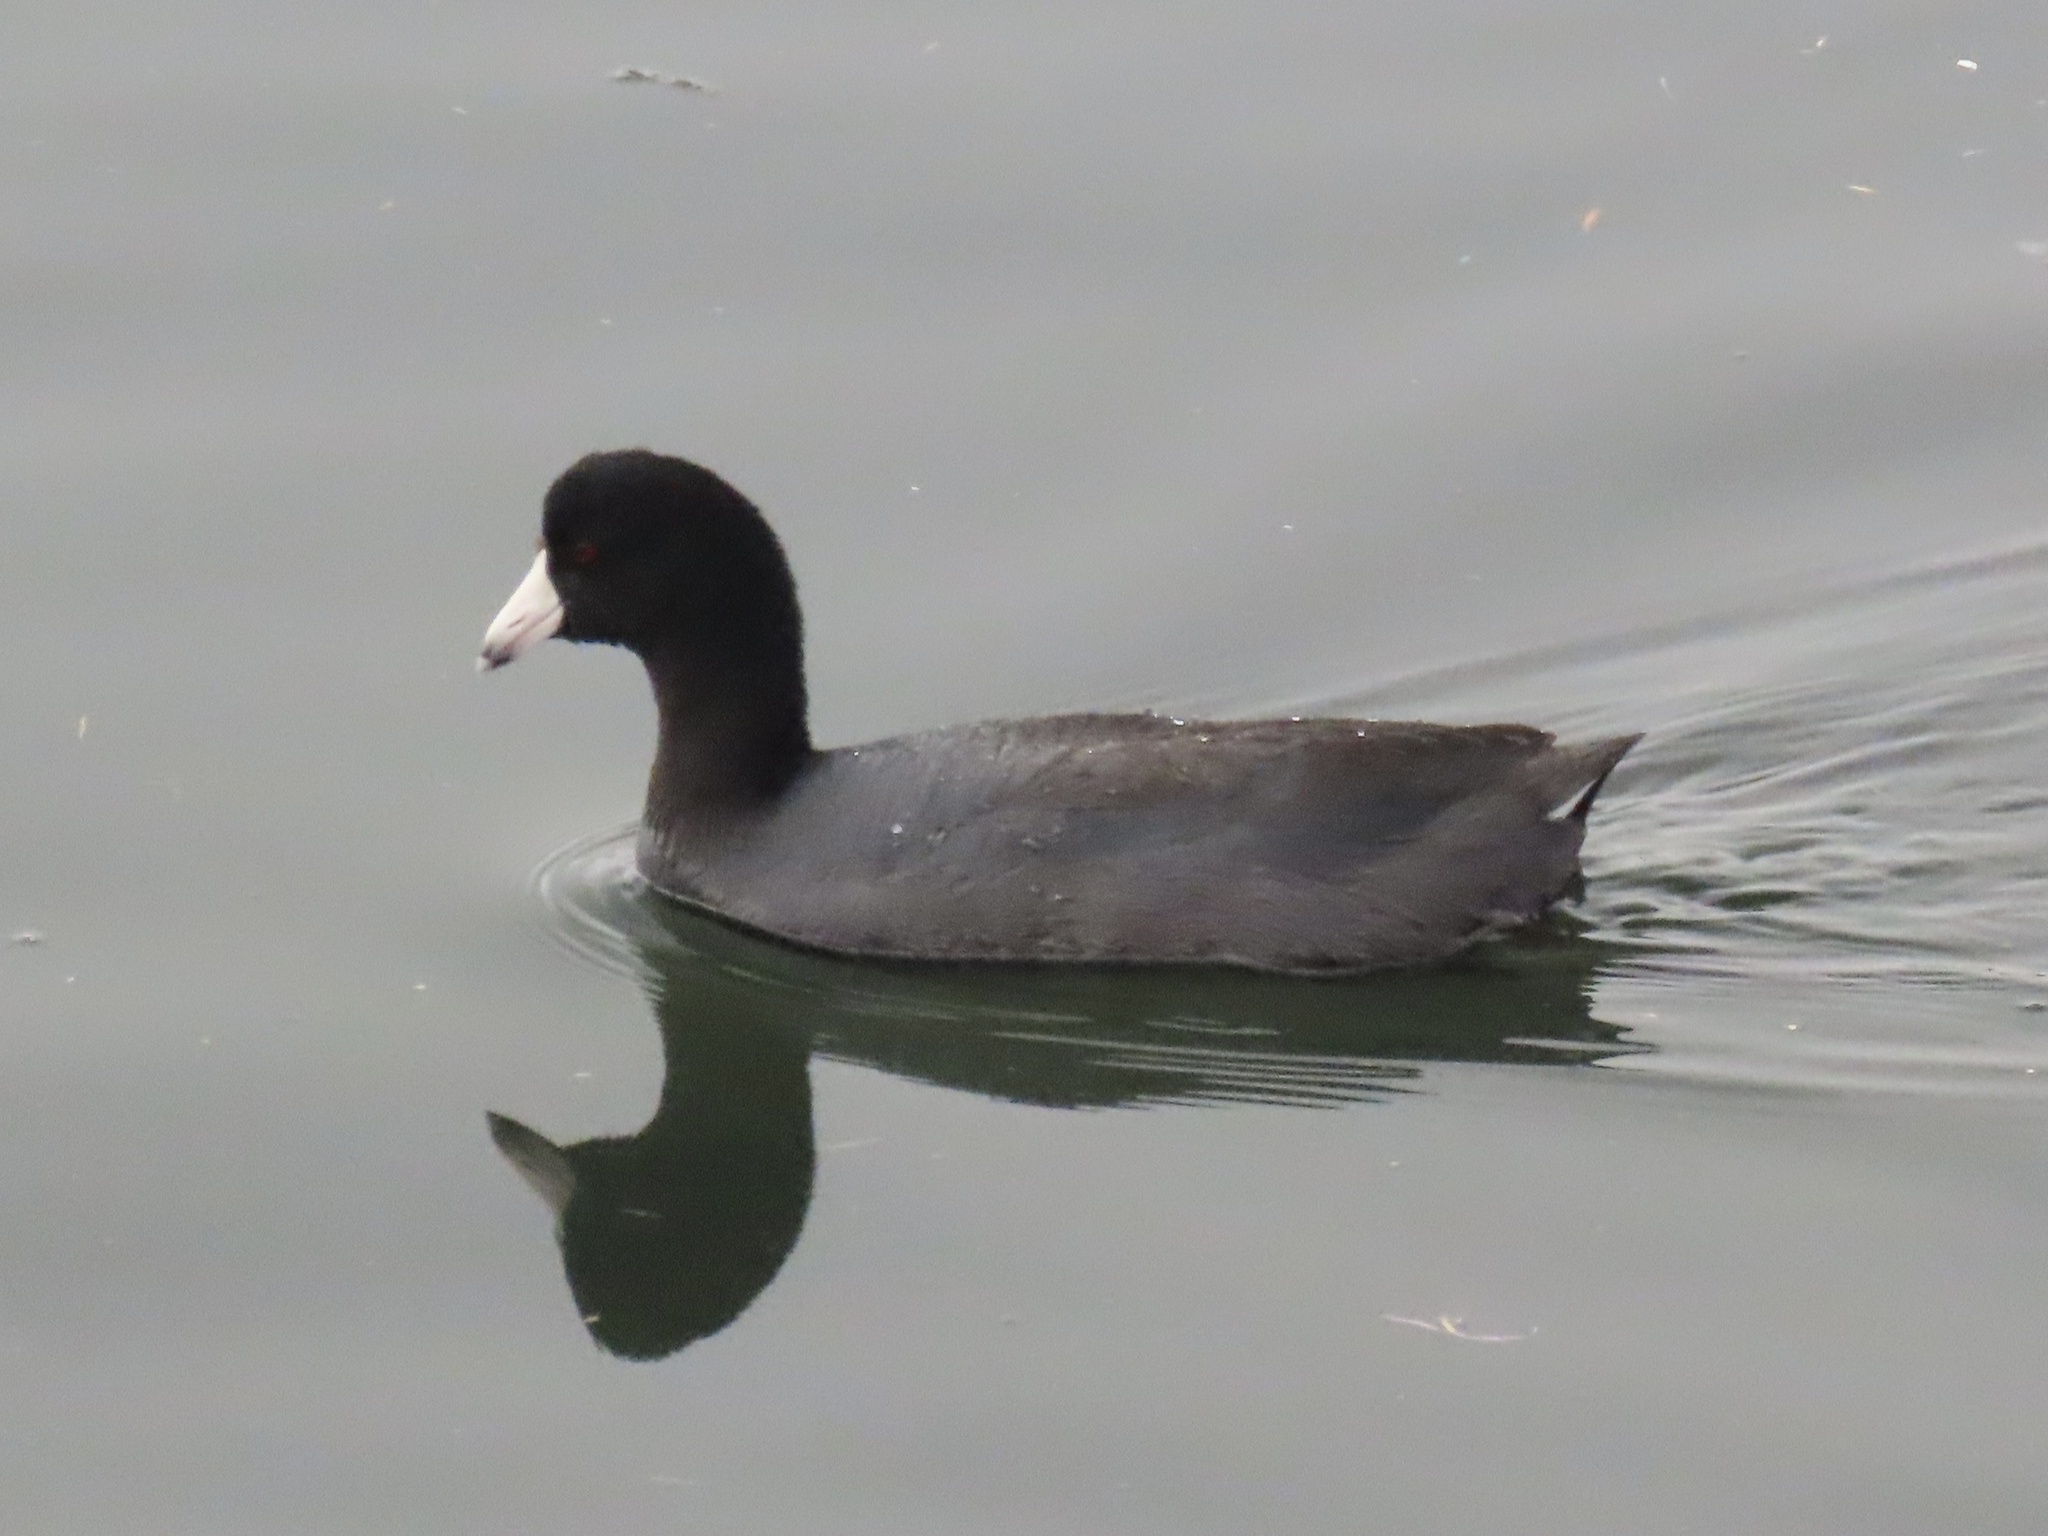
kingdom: Animalia
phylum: Chordata
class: Aves
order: Gruiformes
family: Rallidae
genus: Fulica
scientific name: Fulica americana
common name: American coot
